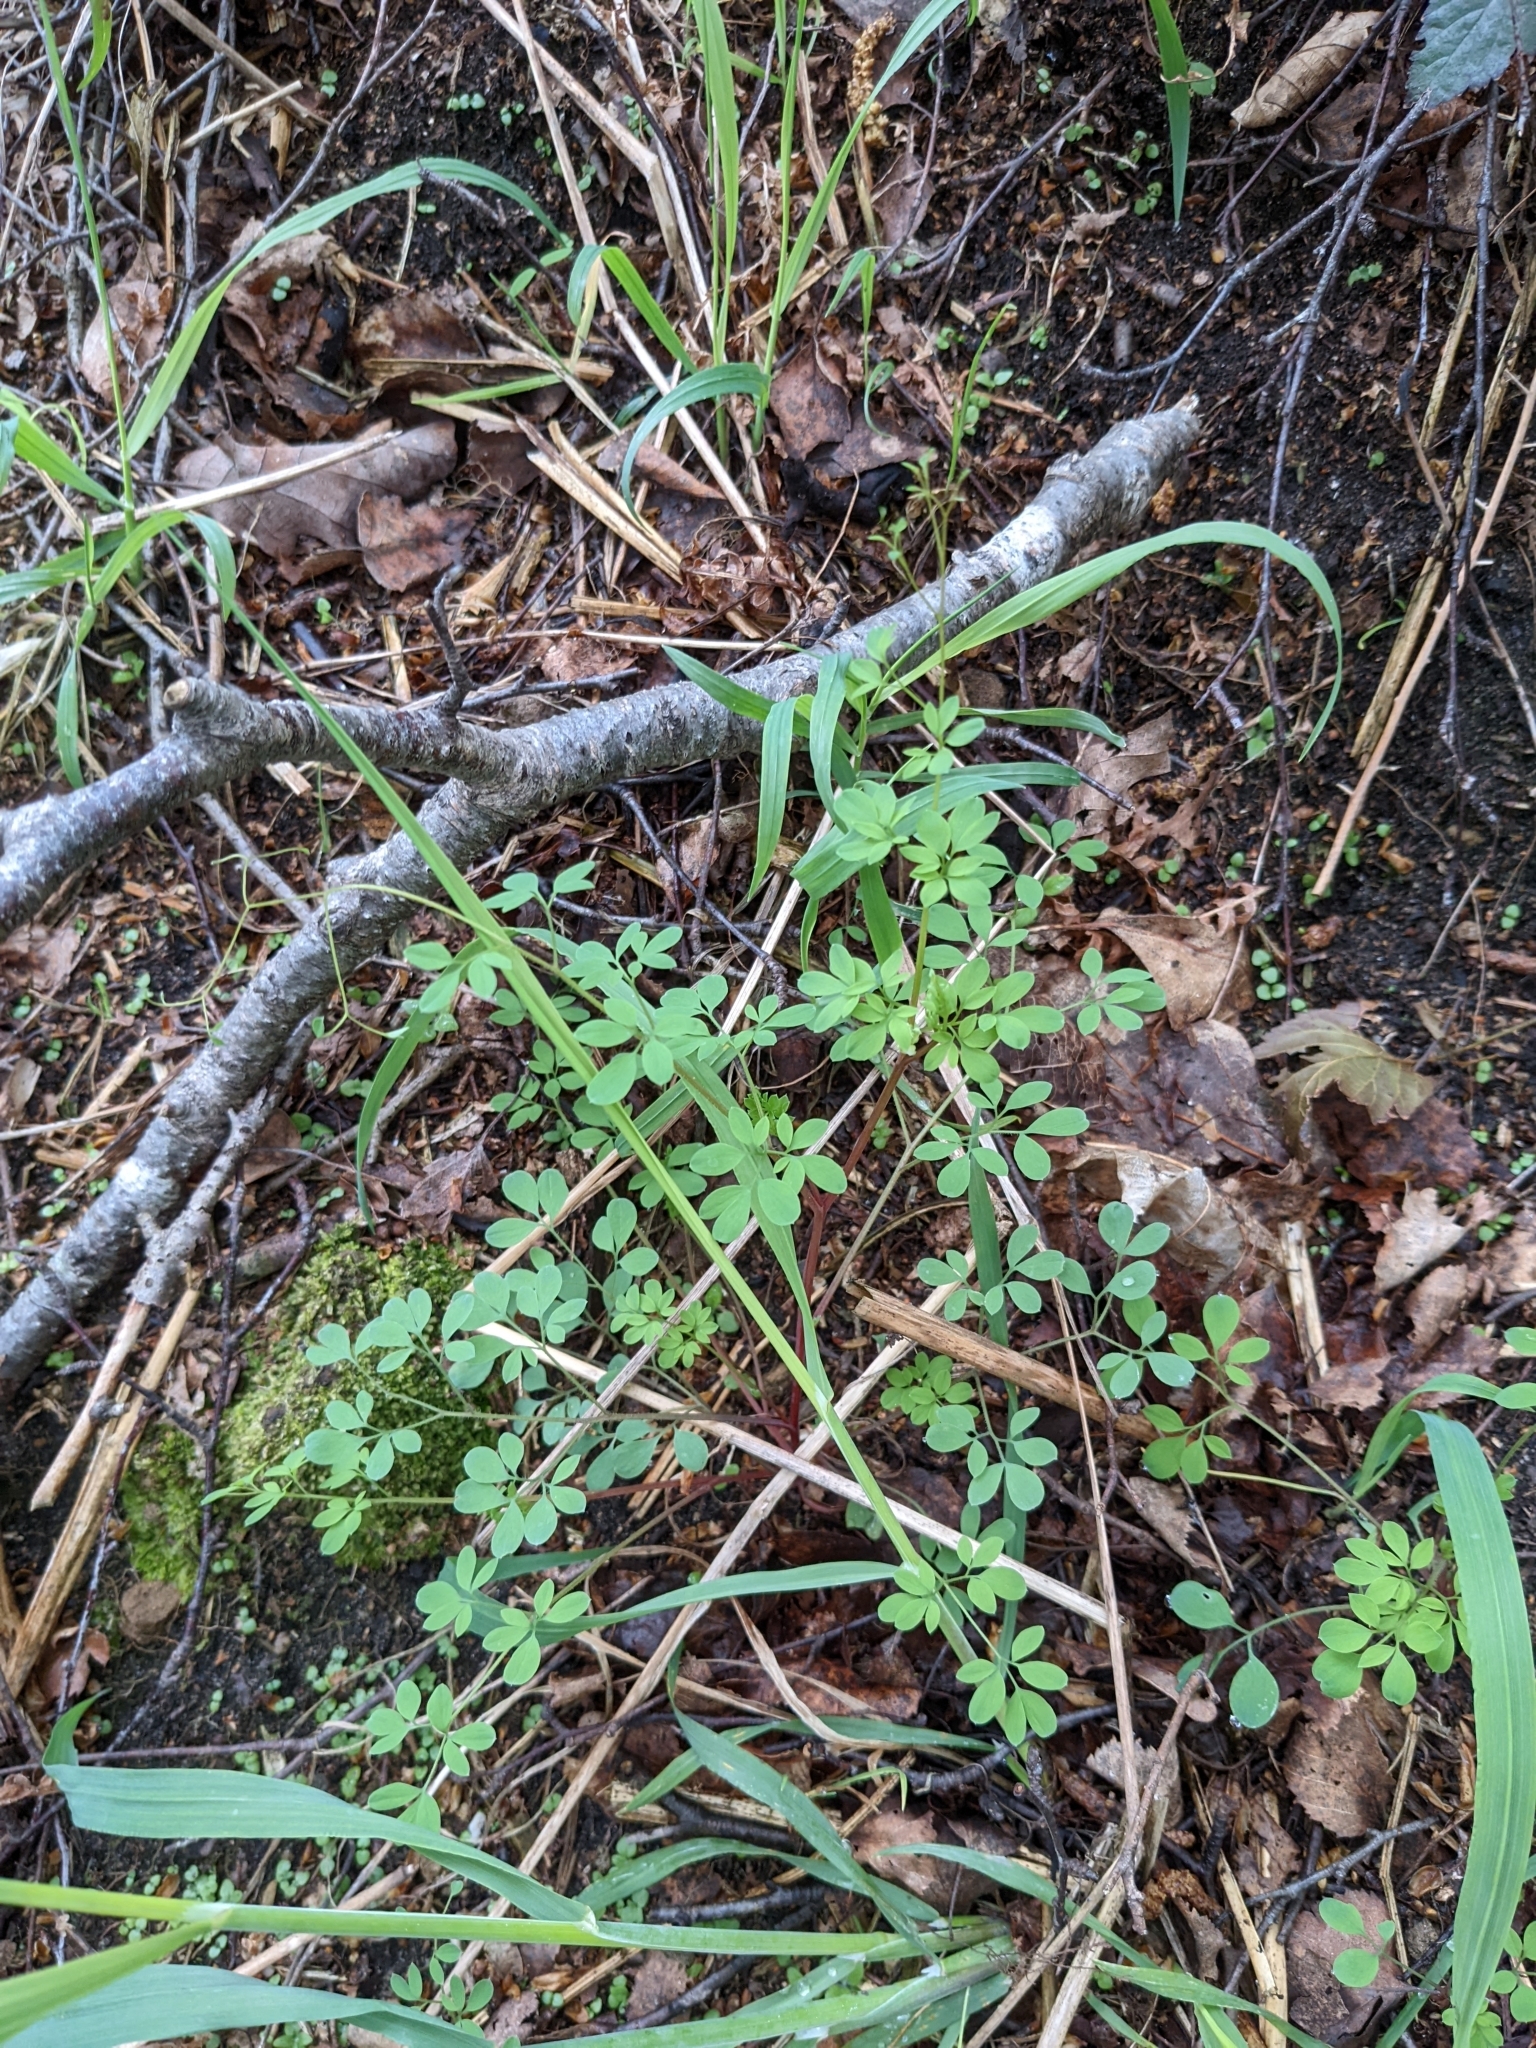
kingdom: Plantae
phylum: Tracheophyta
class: Magnoliopsida
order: Ranunculales
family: Papaveraceae
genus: Ceratocapnos
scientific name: Ceratocapnos claviculata
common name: Climbing corydalis
